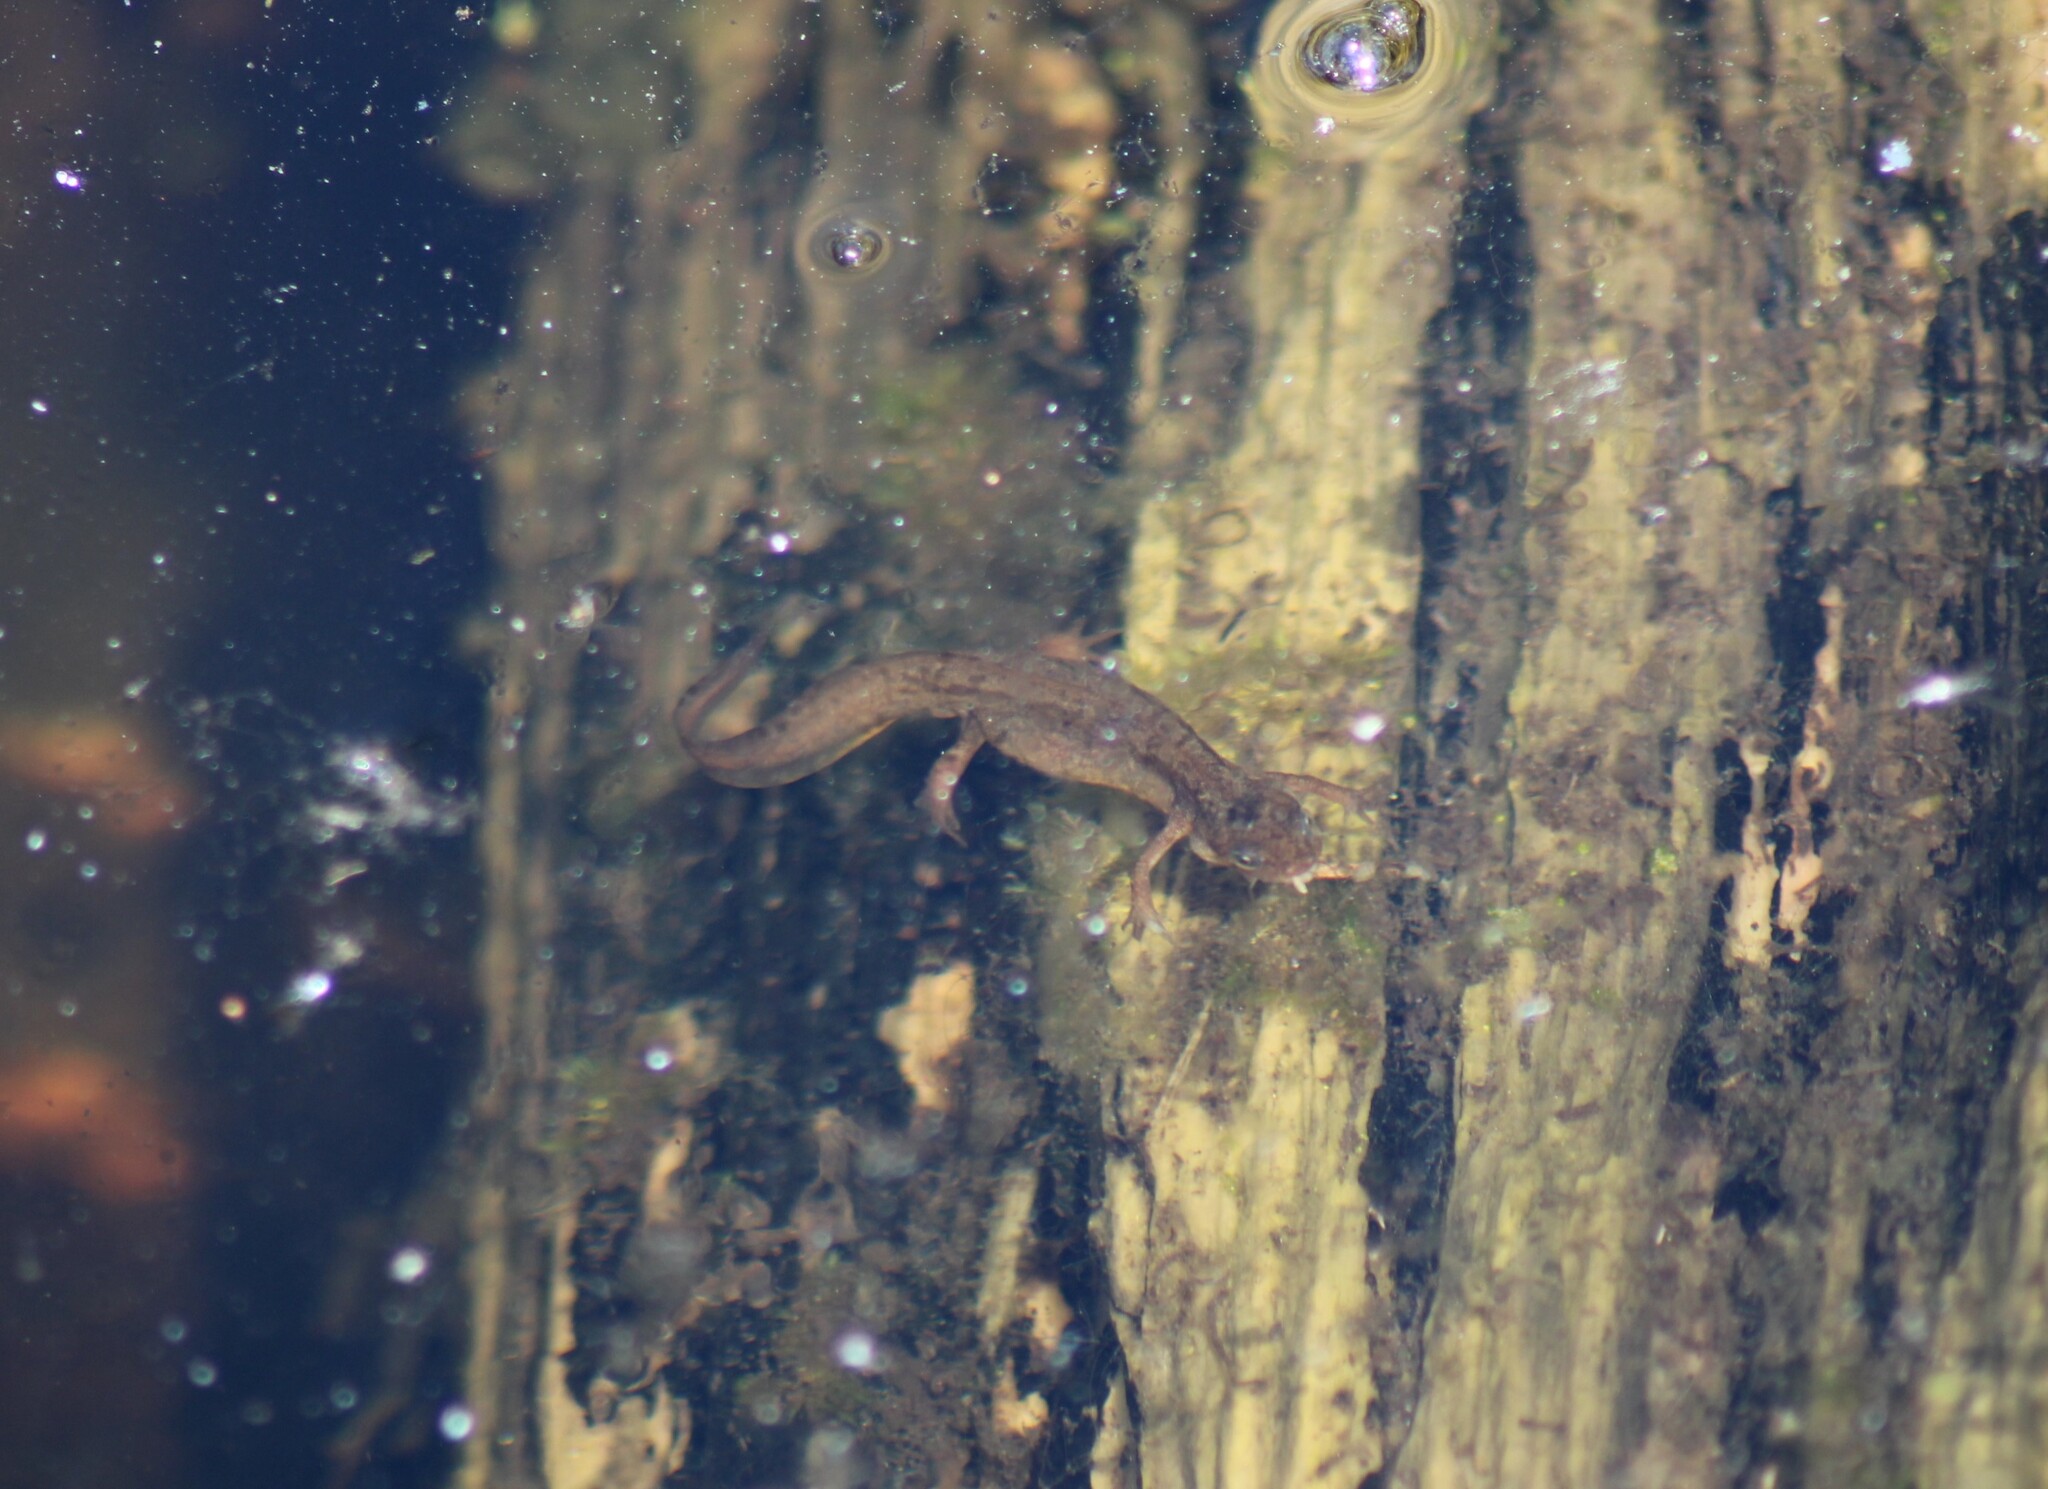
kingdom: Animalia
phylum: Chordata
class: Amphibia
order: Caudata
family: Salamandridae
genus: Lissotriton
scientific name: Lissotriton vulgaris
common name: Smooth newt
